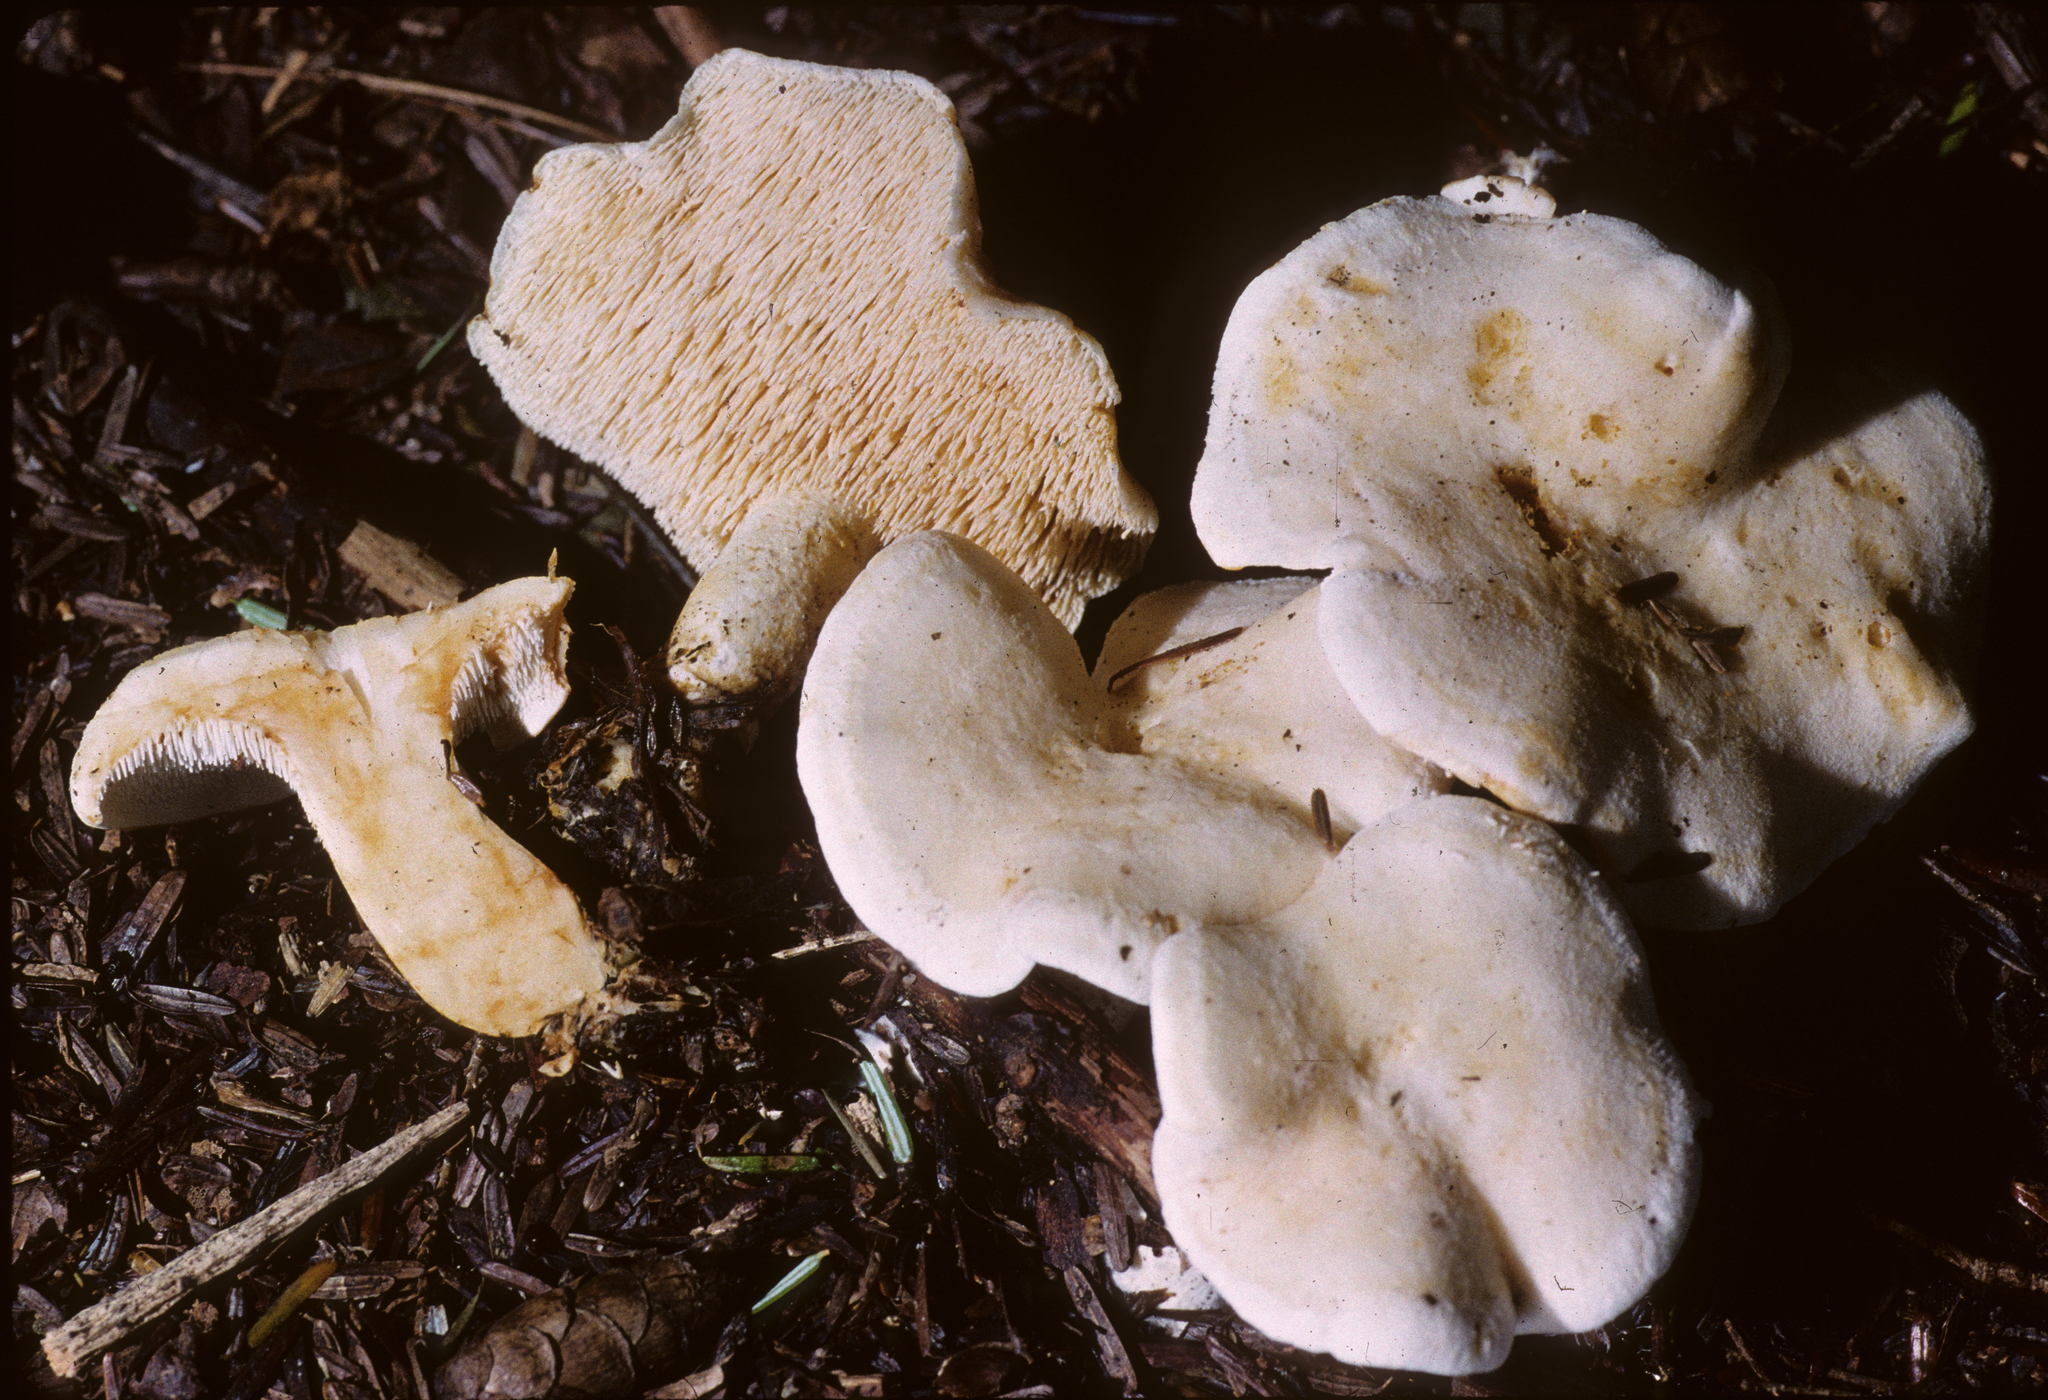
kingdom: Fungi
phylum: Basidiomycota
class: Agaricomycetes
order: Cantharellales
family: Hydnaceae
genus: Hydnum
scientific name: Hydnum albidum
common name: White hedgehog
